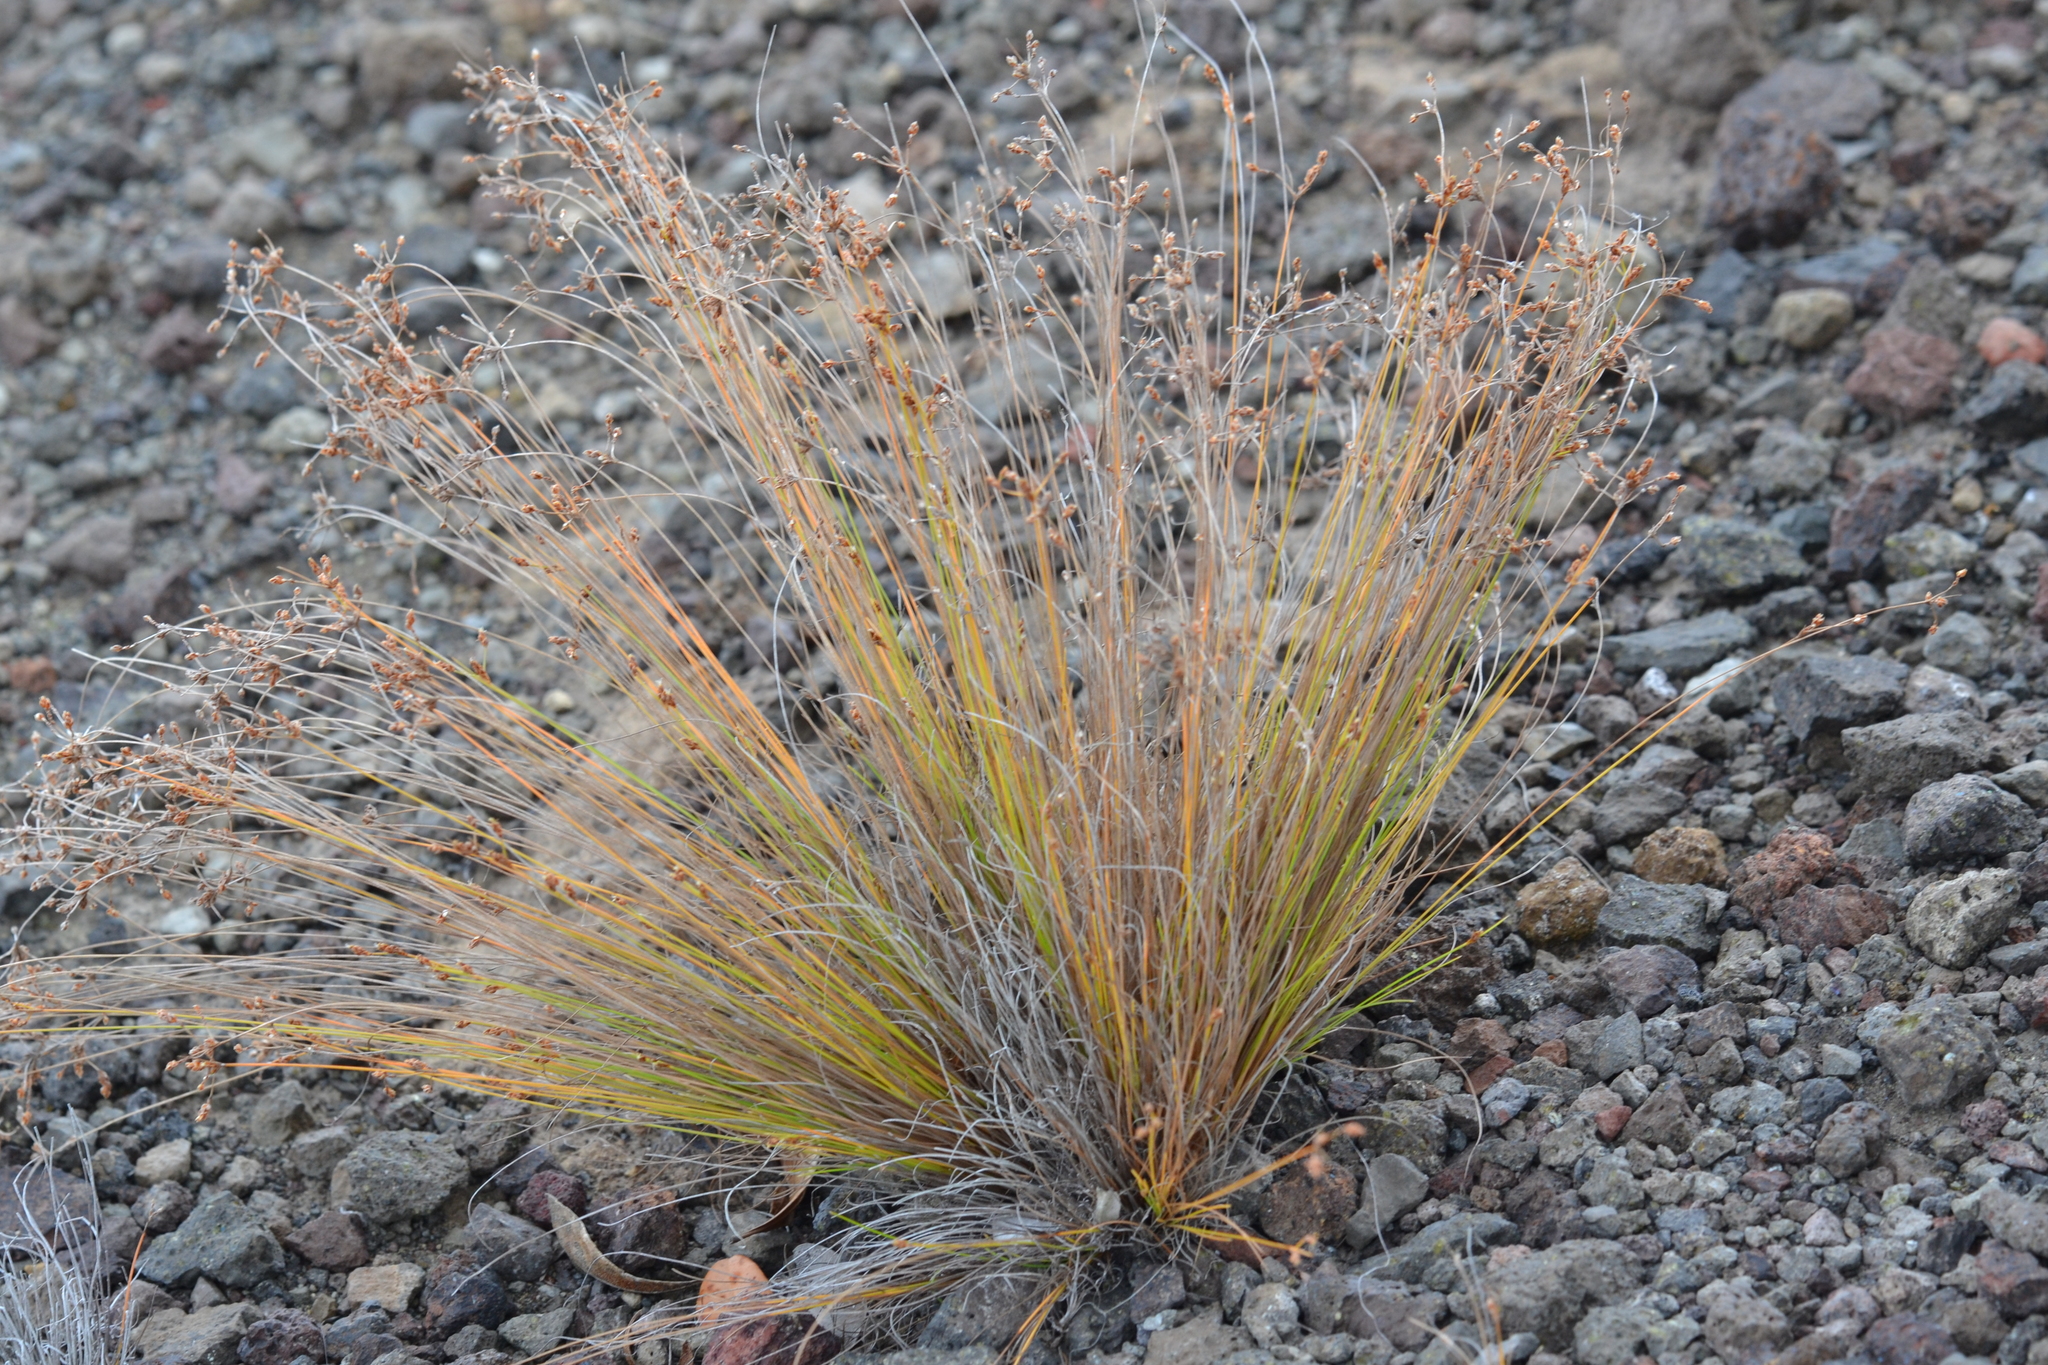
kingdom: Plantae
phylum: Tracheophyta
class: Liliopsida
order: Poales
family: Cyperaceae
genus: Bulbostylis
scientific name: Bulbostylis capillaris
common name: Densetuft hairsedge
